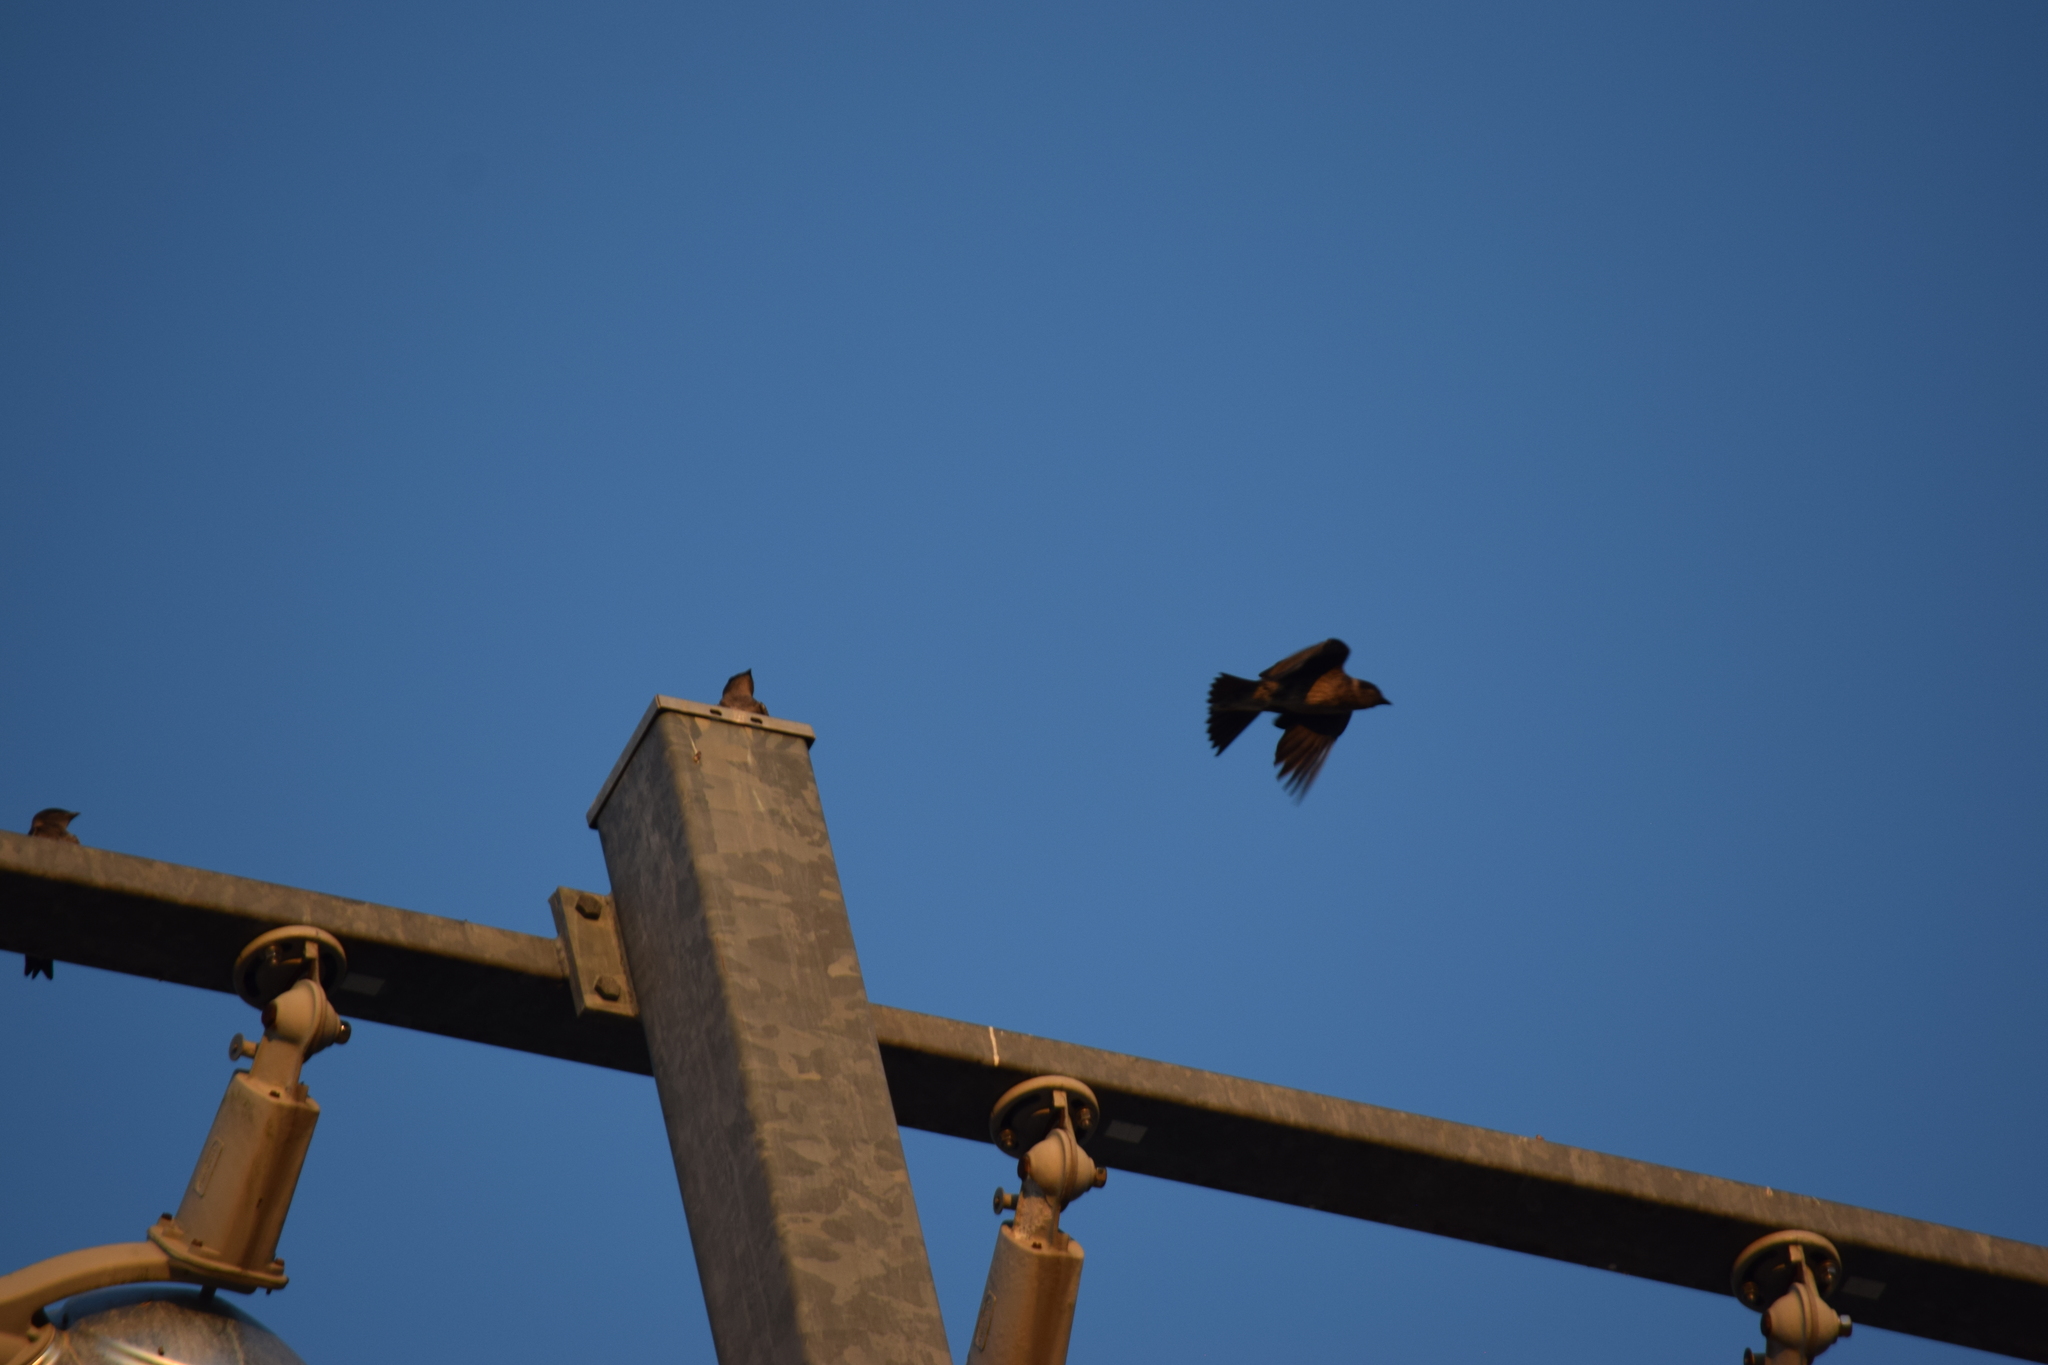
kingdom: Animalia
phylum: Chordata
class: Aves
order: Passeriformes
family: Hirundinidae
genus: Progne
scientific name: Progne subis
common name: Purple martin
